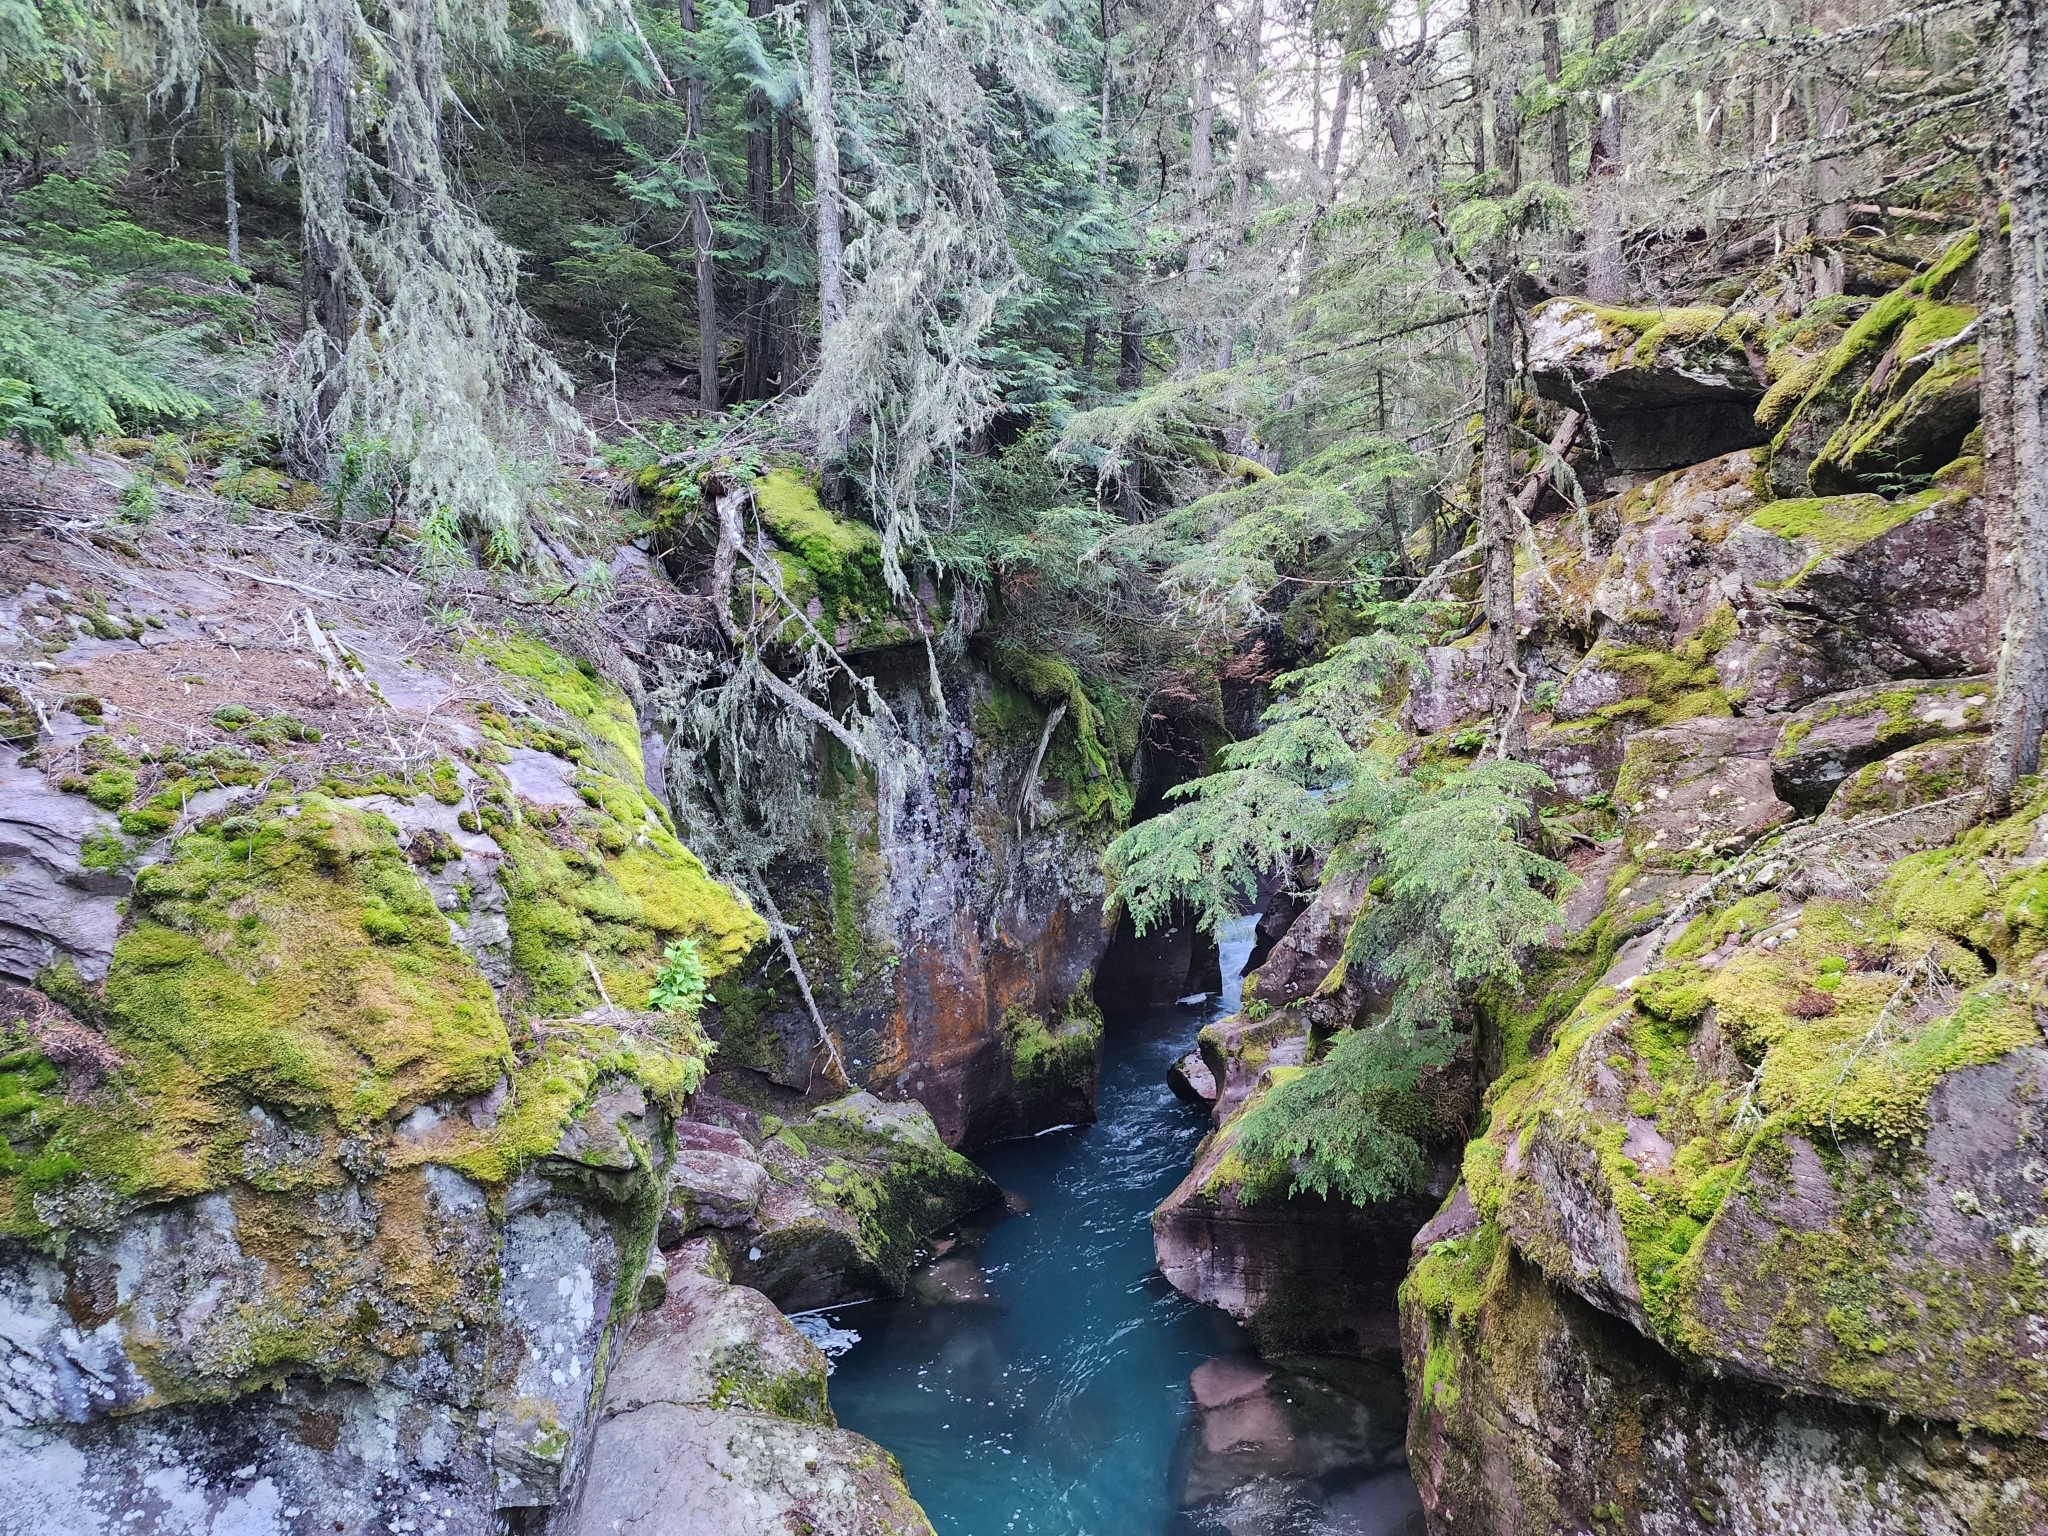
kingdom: Plantae
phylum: Tracheophyta
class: Pinopsida
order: Pinales
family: Cupressaceae
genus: Thuja
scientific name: Thuja plicata
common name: Western red-cedar
